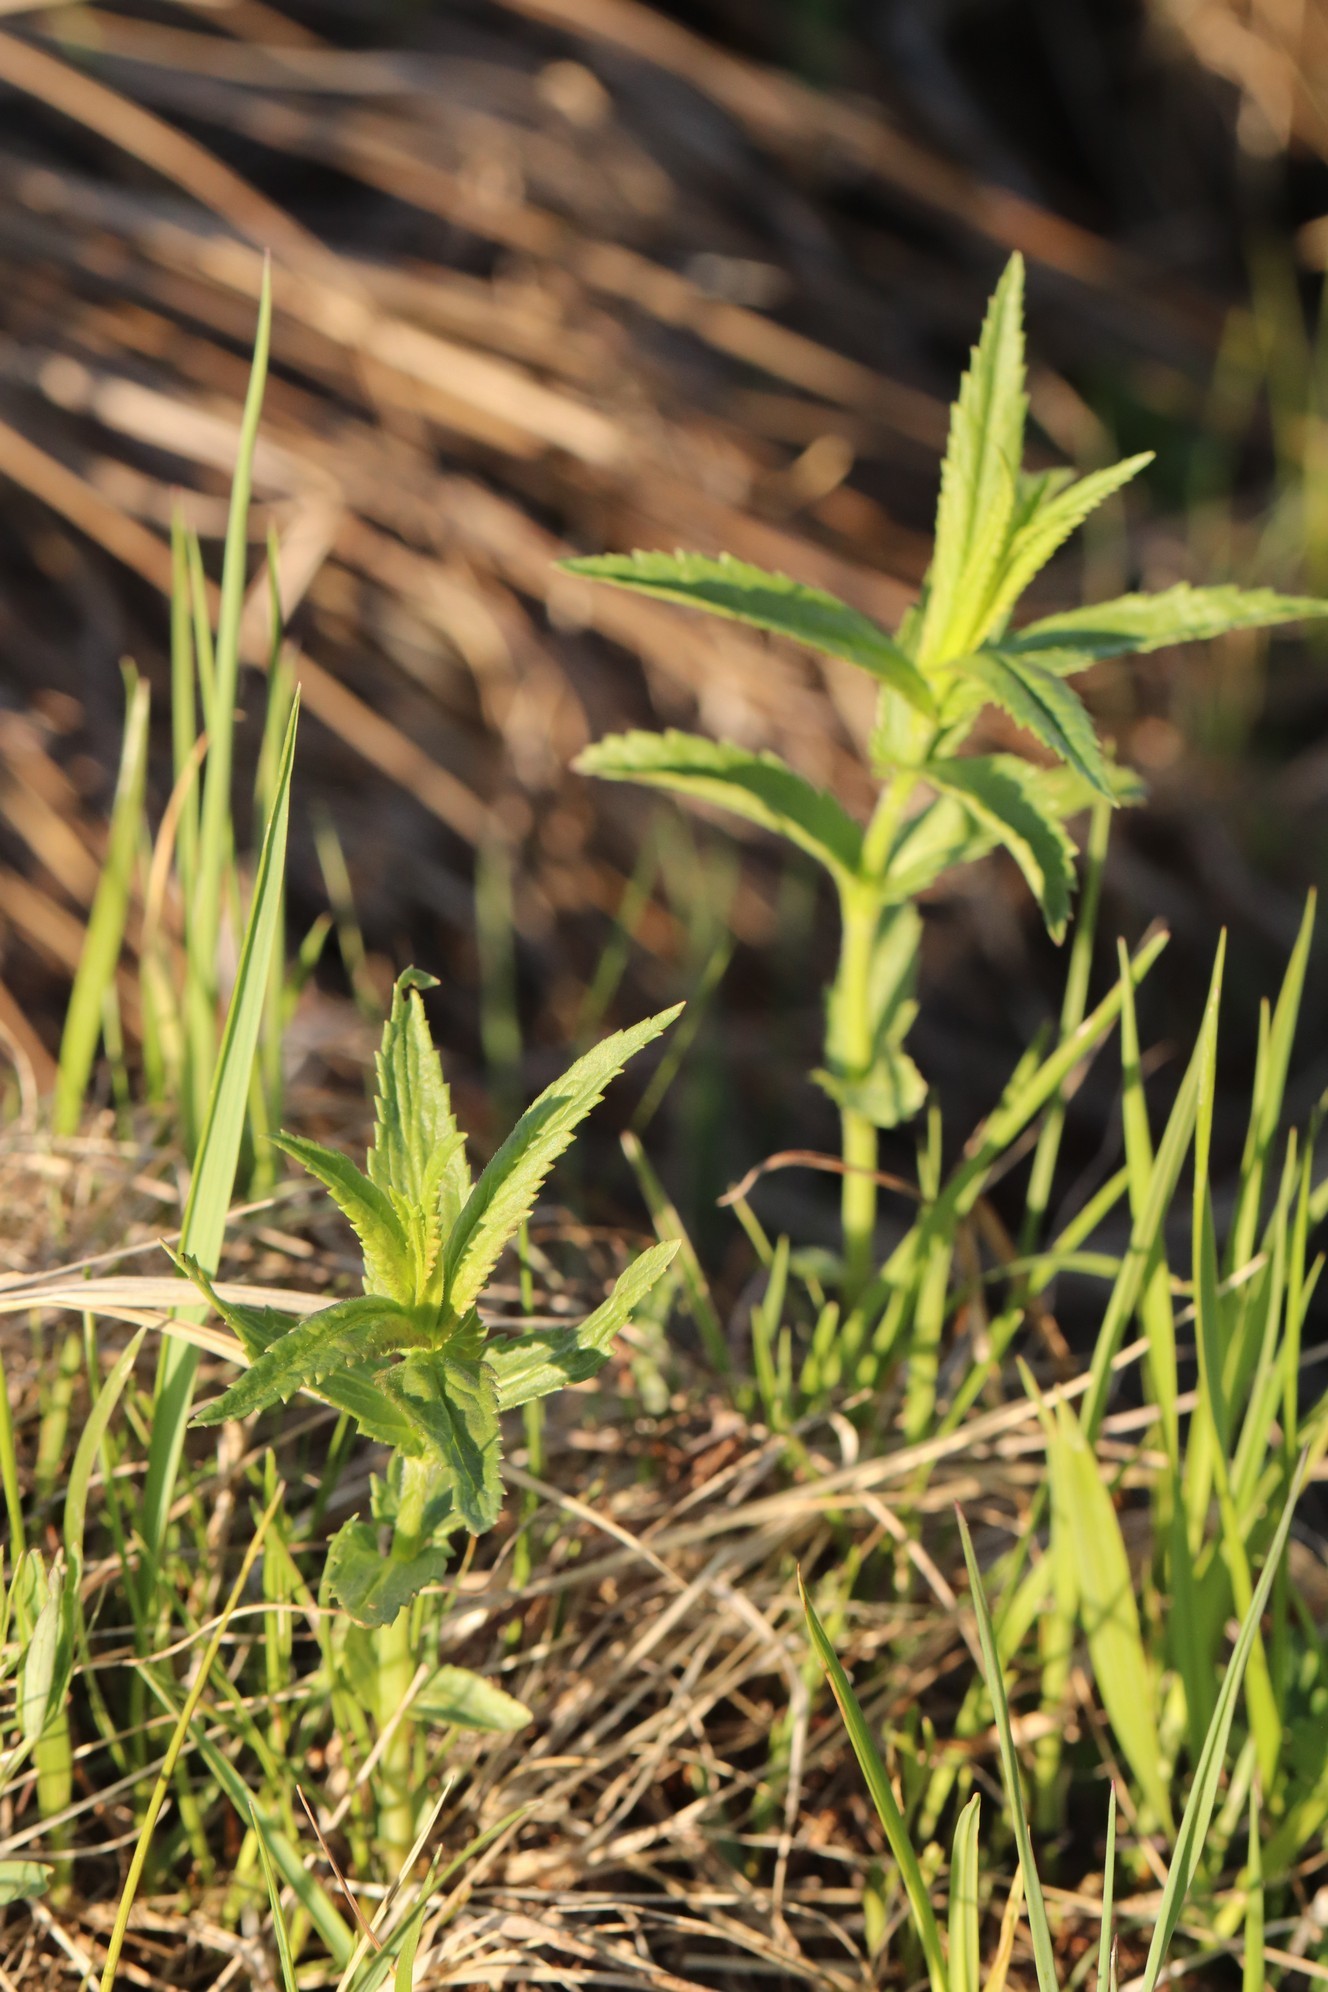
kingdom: Plantae
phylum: Tracheophyta
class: Magnoliopsida
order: Lamiales
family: Plantaginaceae
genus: Veronica
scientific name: Veronica longifolia
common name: Garden speedwell
